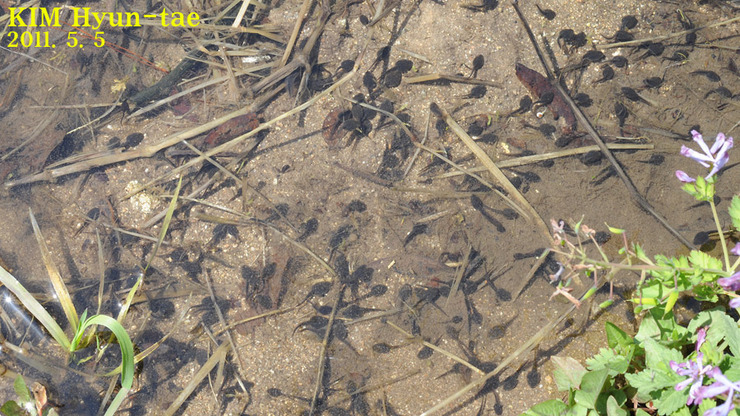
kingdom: Animalia
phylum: Chordata
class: Amphibia
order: Anura
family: Ranidae
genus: Rana
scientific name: Rana huanrenensis
